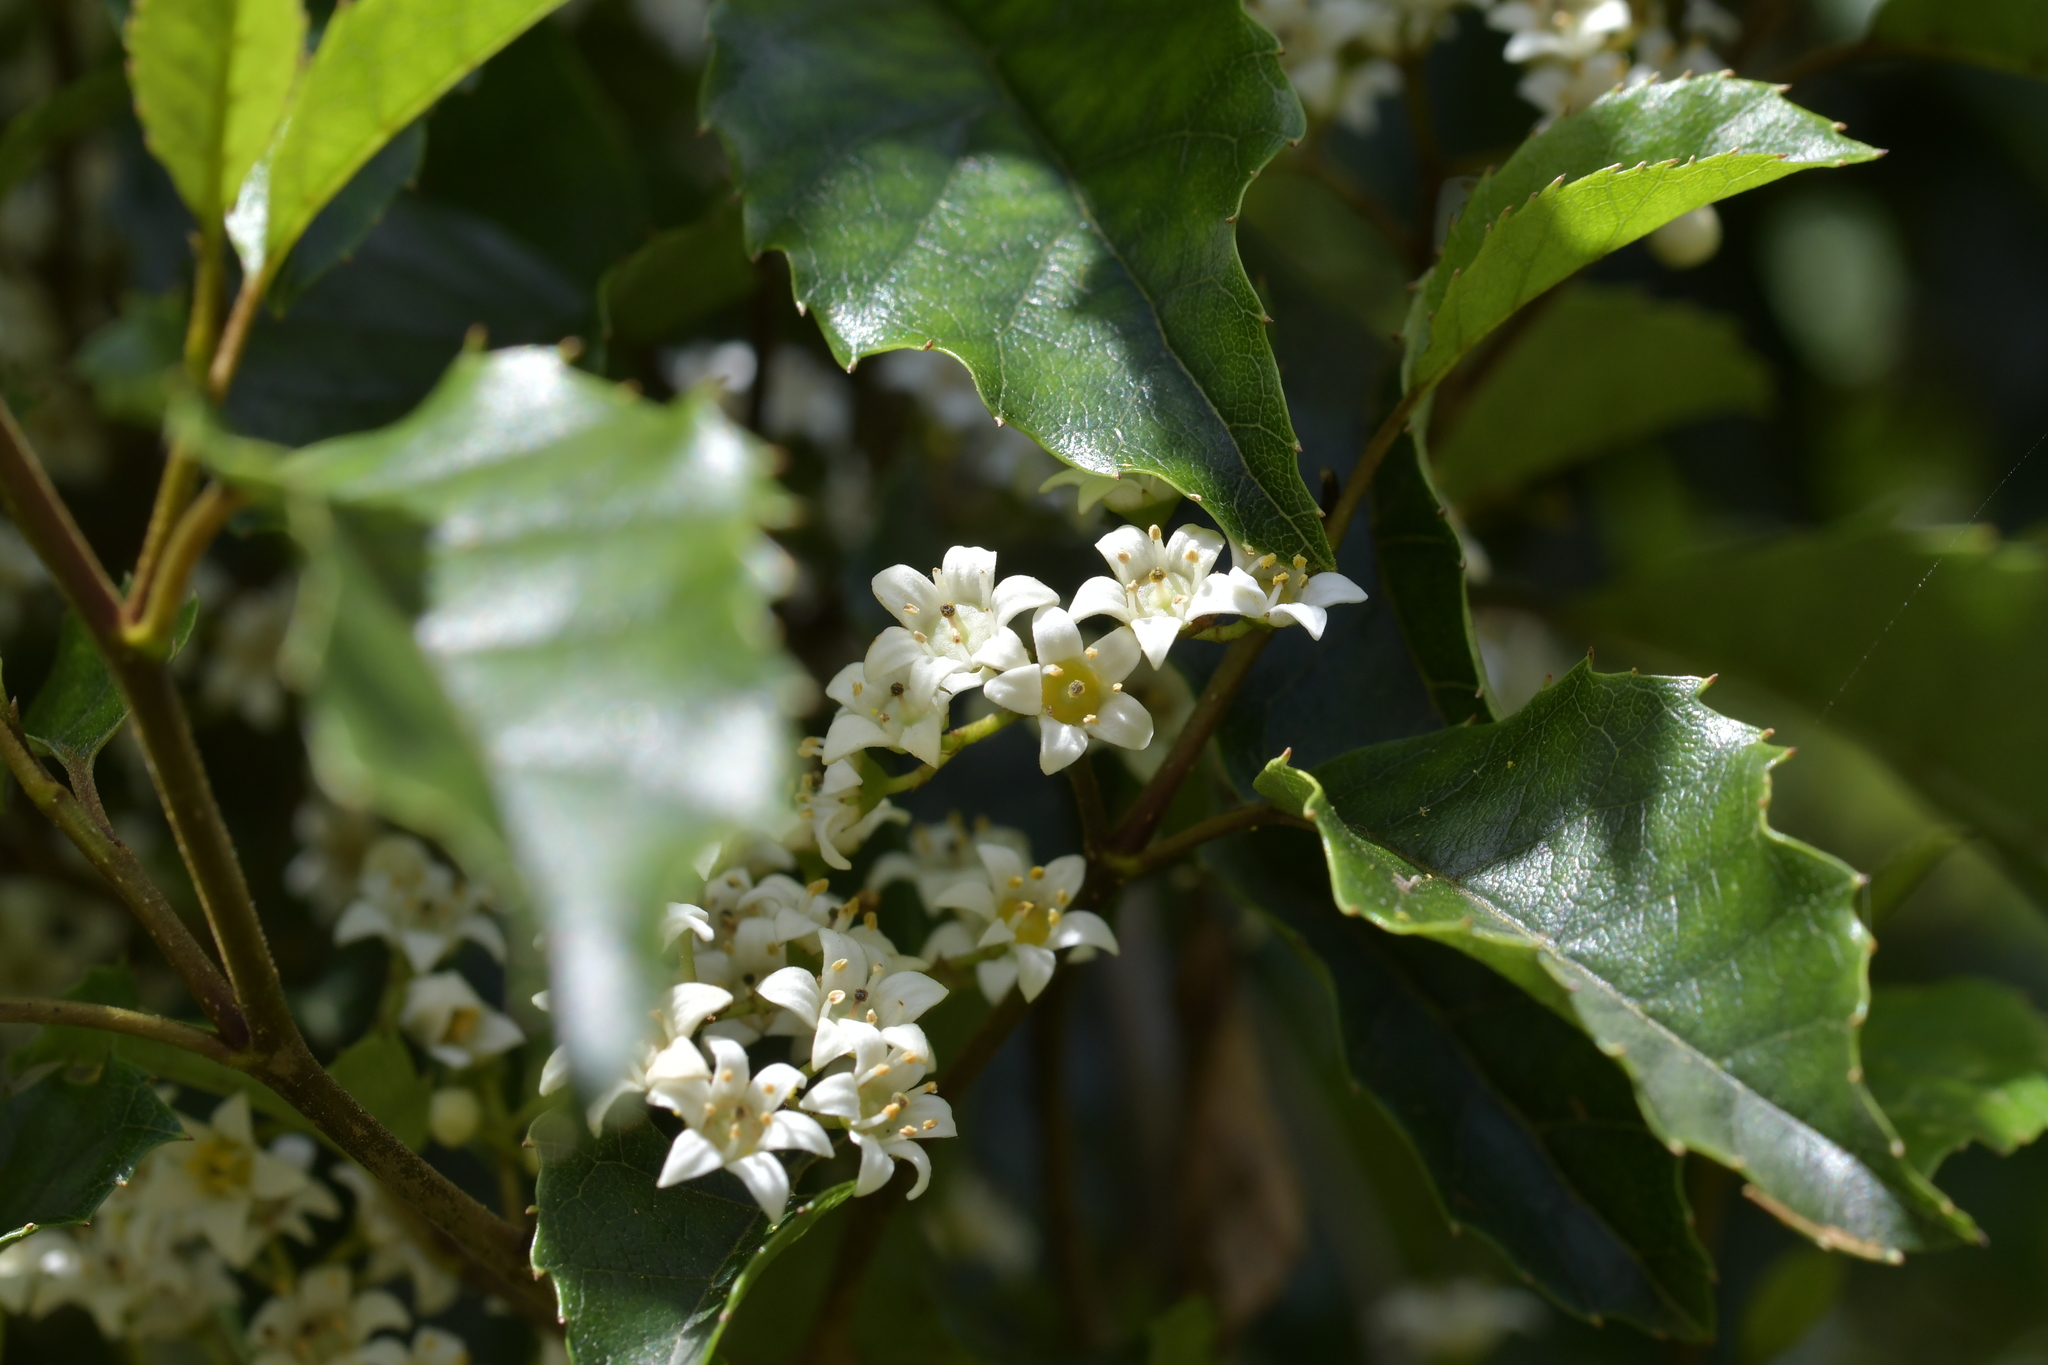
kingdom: Plantae
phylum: Tracheophyta
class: Magnoliopsida
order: Asterales
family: Rousseaceae
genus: Carpodetus
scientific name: Carpodetus serratus
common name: White mapau
